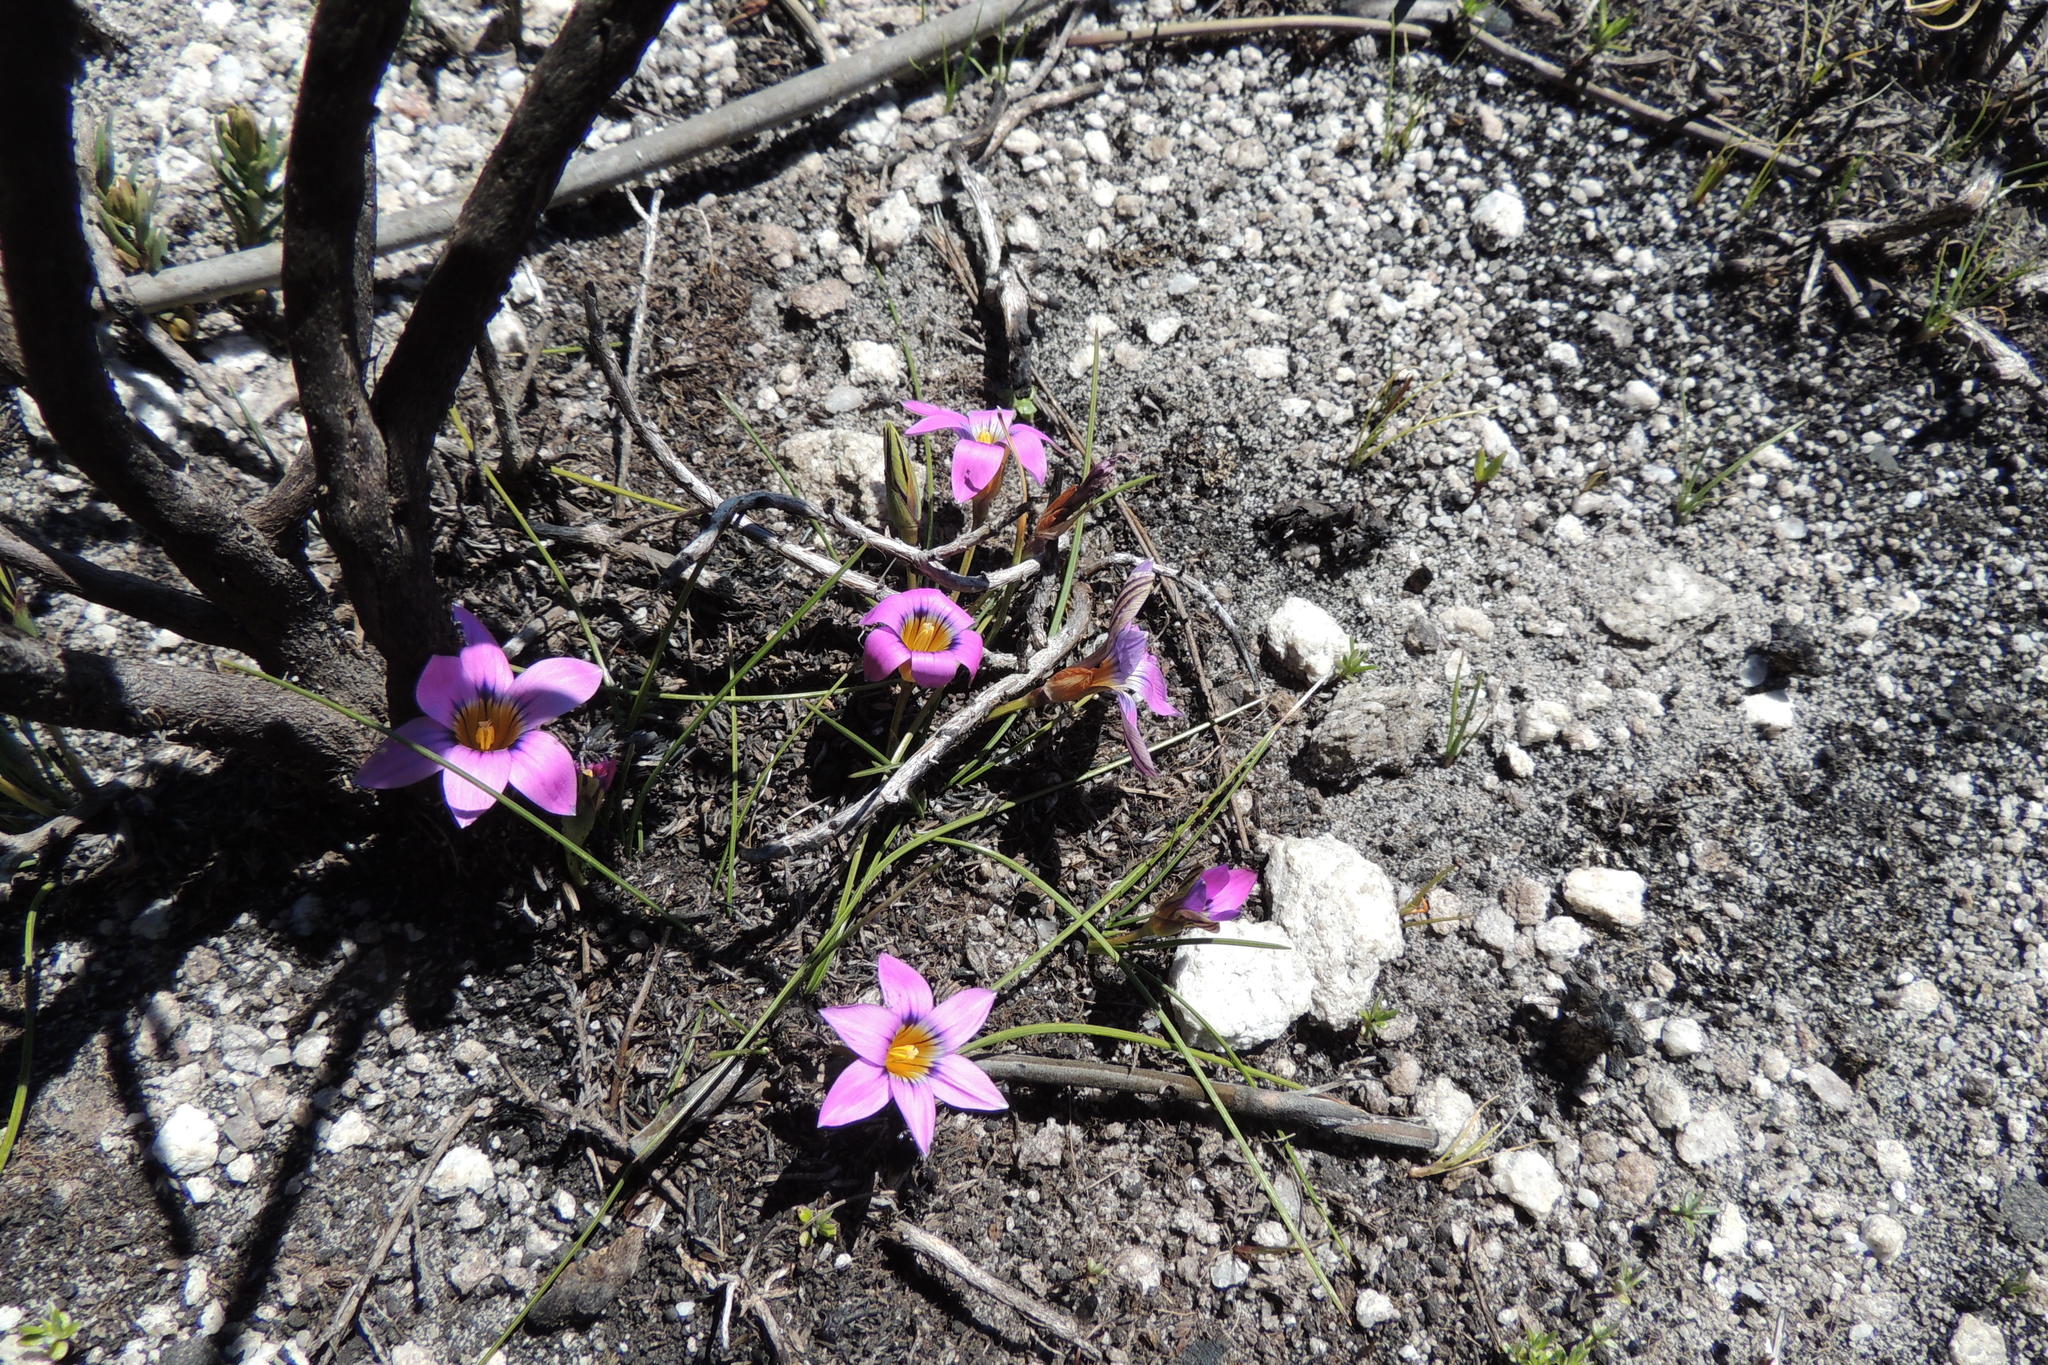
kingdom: Plantae
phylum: Tracheophyta
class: Liliopsida
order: Asparagales
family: Iridaceae
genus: Romulea
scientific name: Romulea minutiflora
